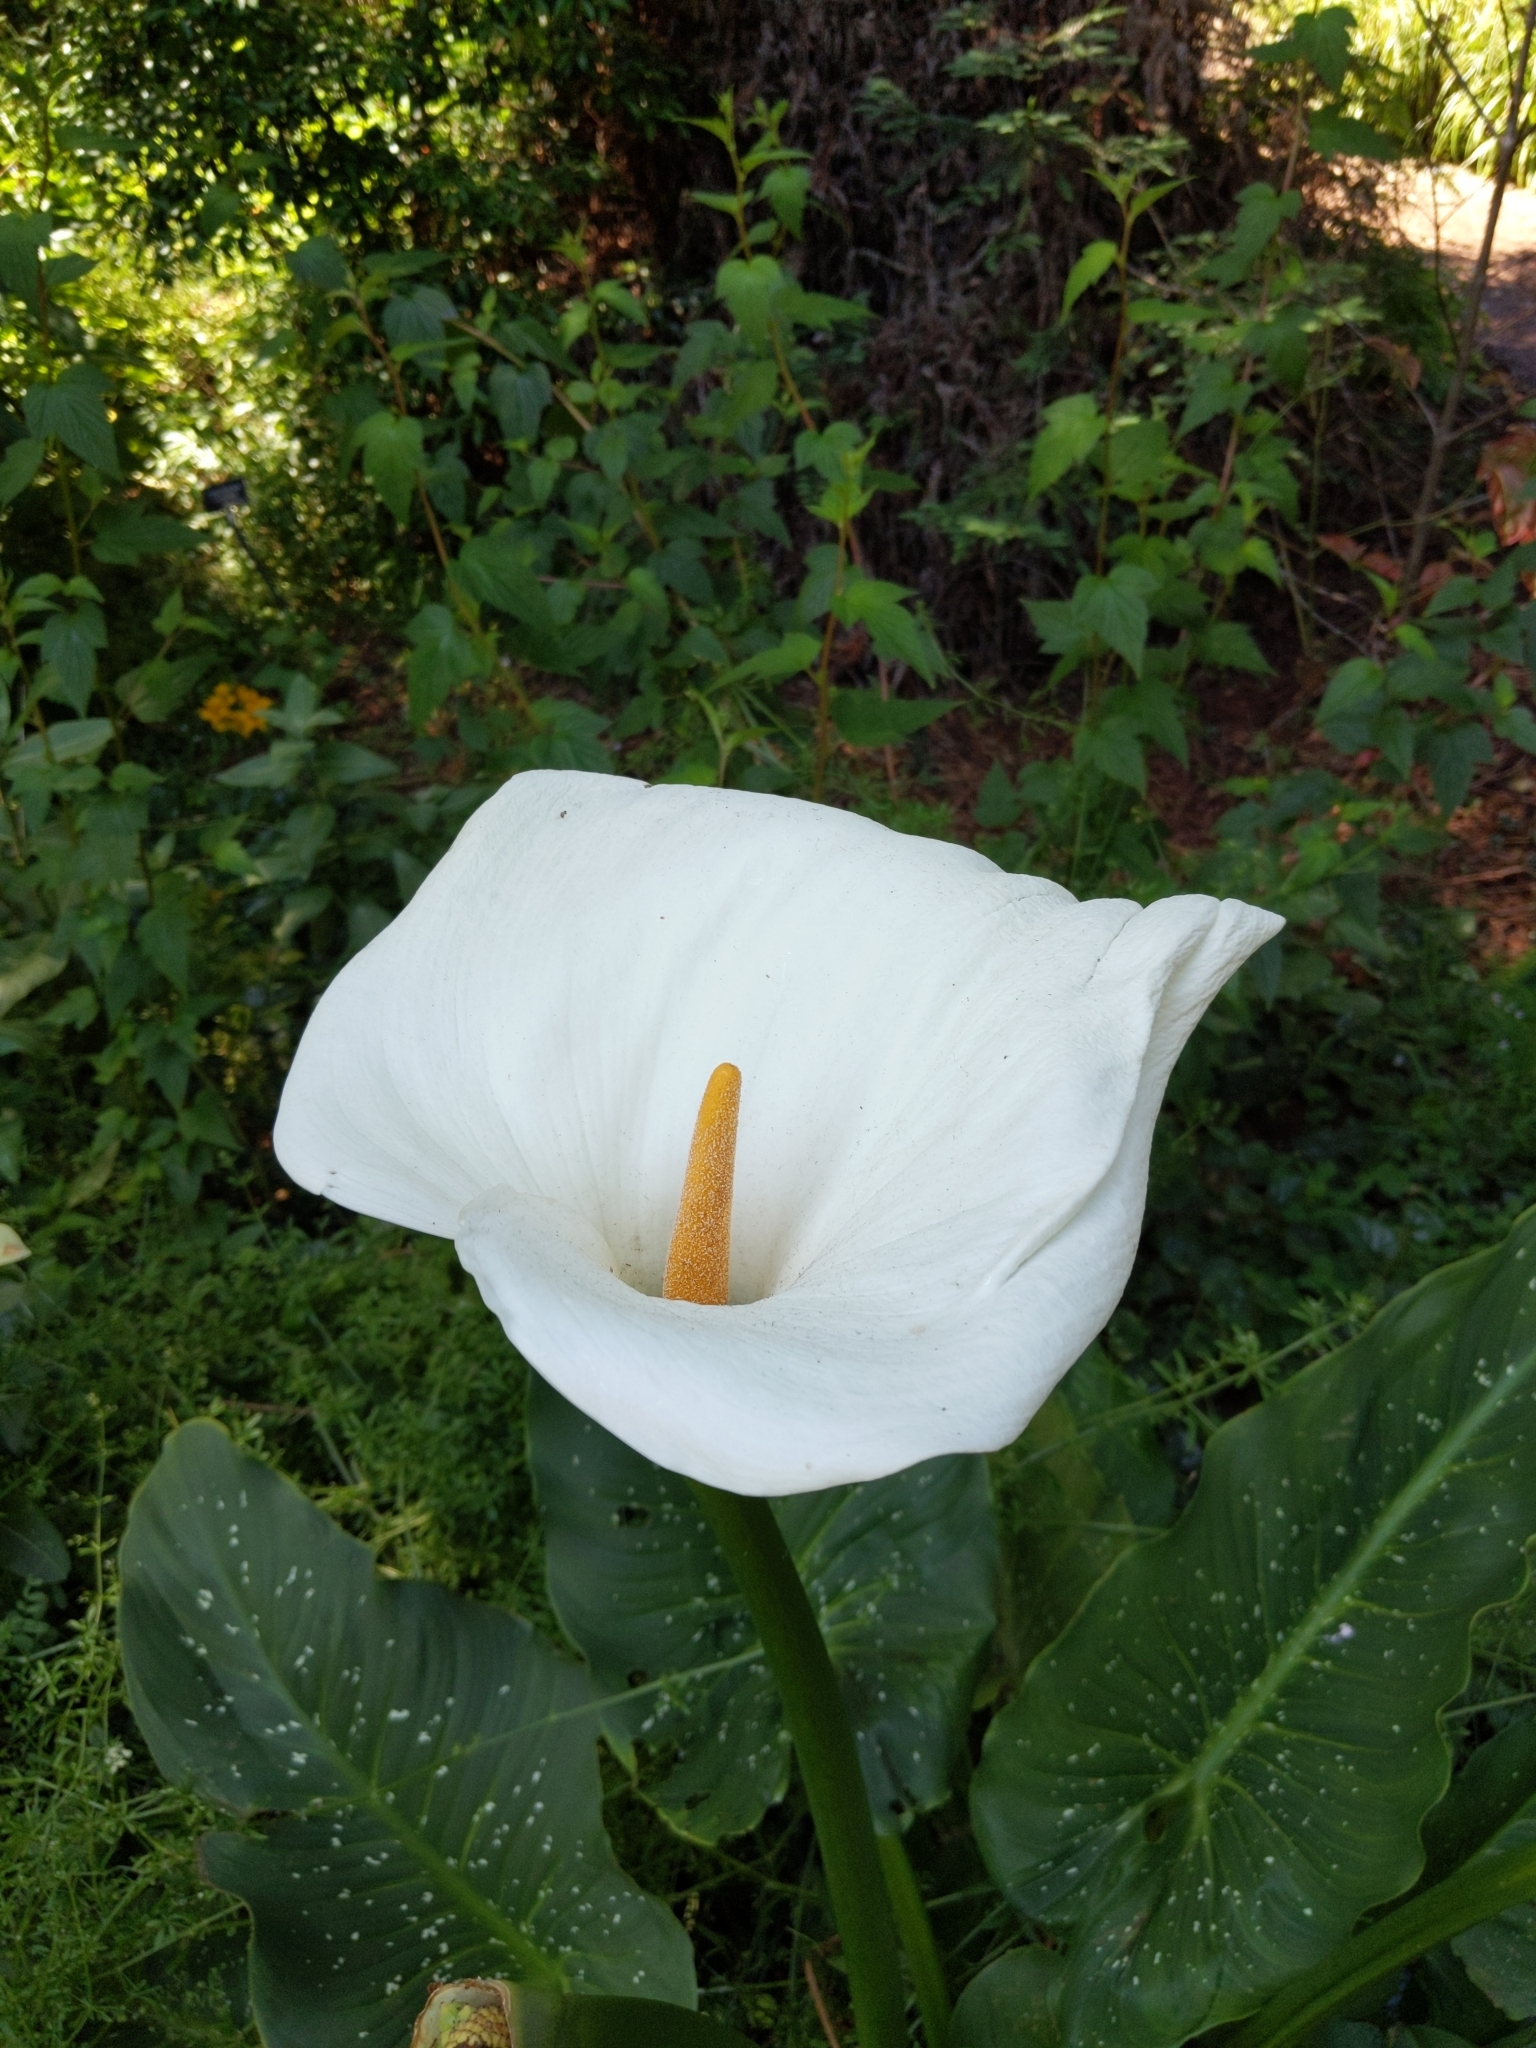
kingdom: Plantae
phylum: Tracheophyta
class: Liliopsida
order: Alismatales
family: Araceae
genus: Zantedeschia
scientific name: Zantedeschia aethiopica
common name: Altar-lily
